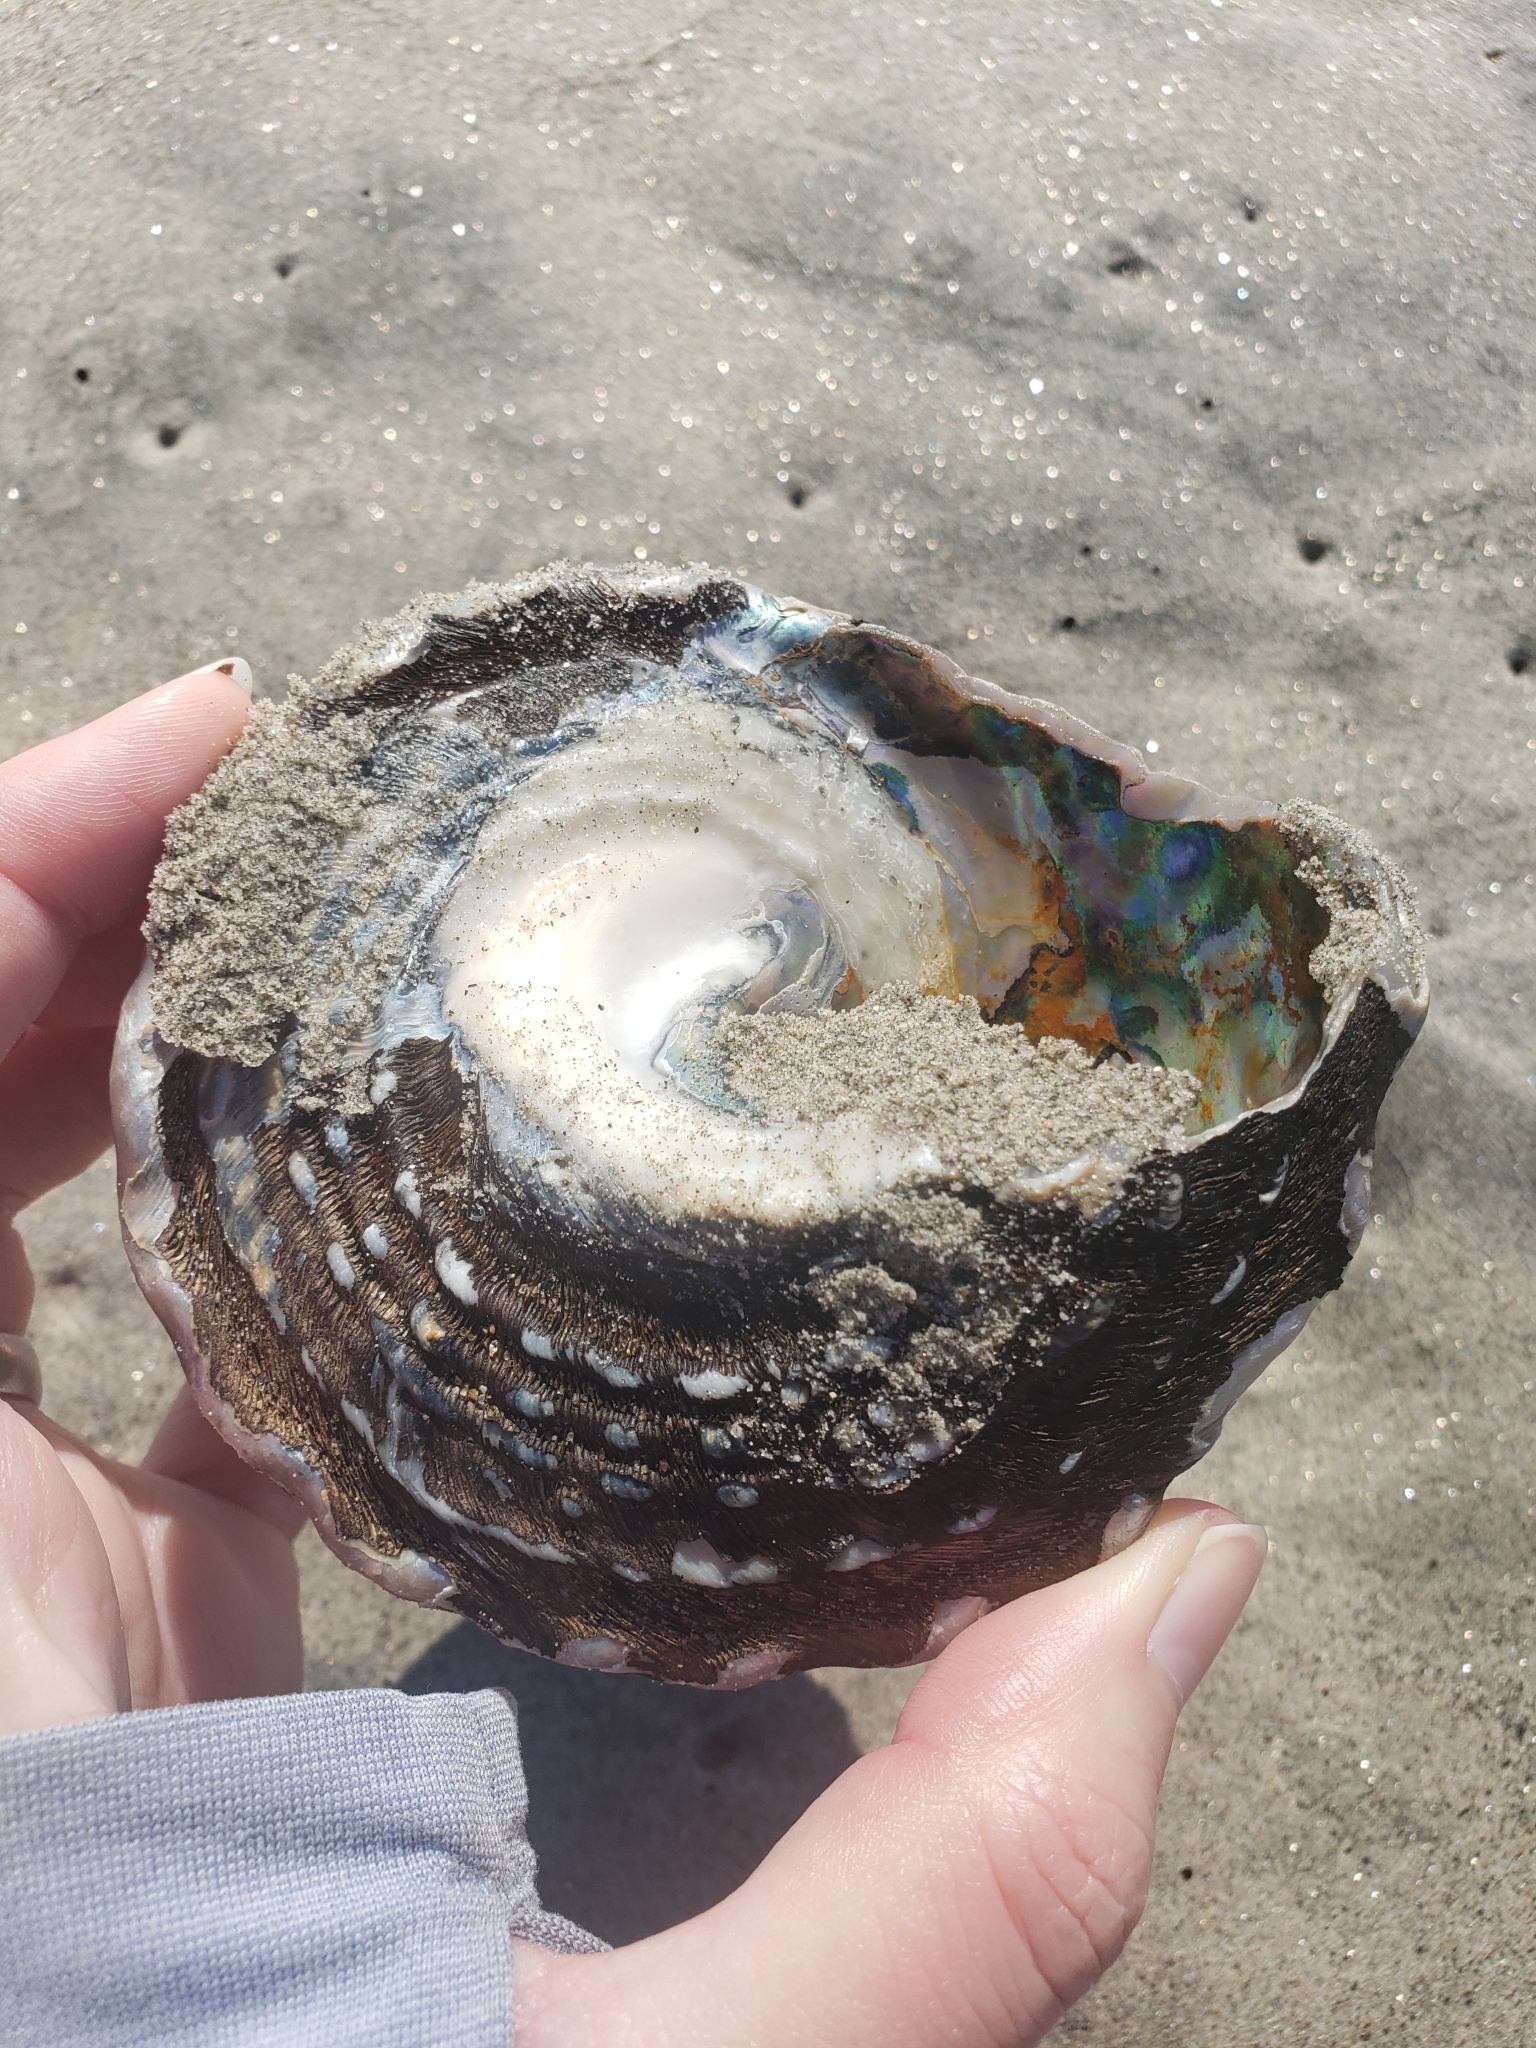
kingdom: Animalia
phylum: Mollusca
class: Gastropoda
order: Trochida
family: Turbinidae
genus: Megastraea
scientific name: Megastraea undosa
